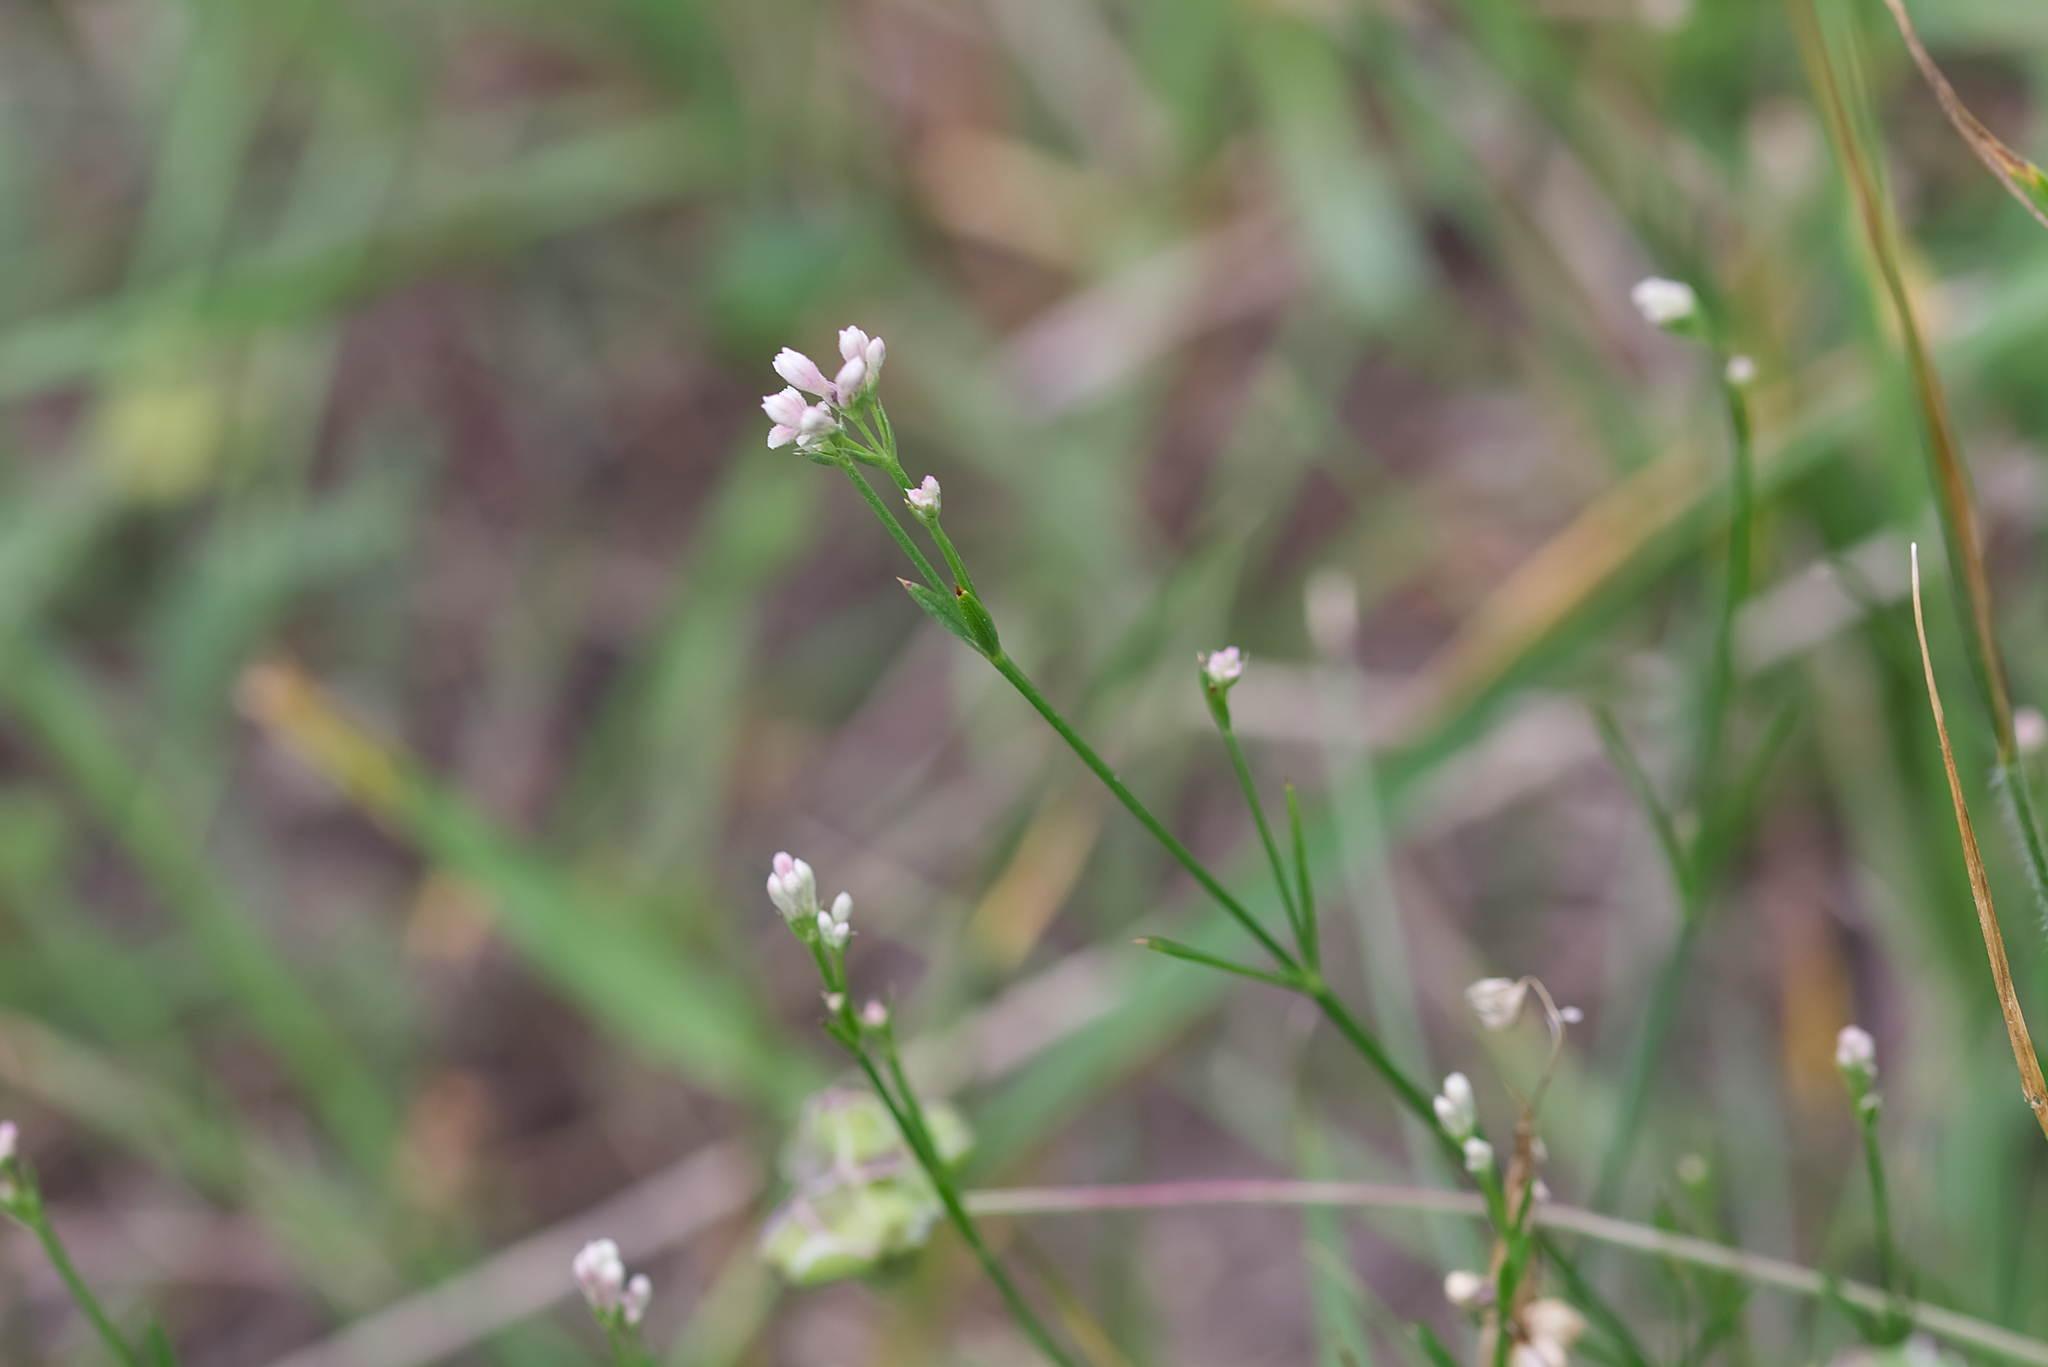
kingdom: Plantae
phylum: Tracheophyta
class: Magnoliopsida
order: Gentianales
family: Rubiaceae
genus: Cynanchica
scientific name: Cynanchica pyrenaica
